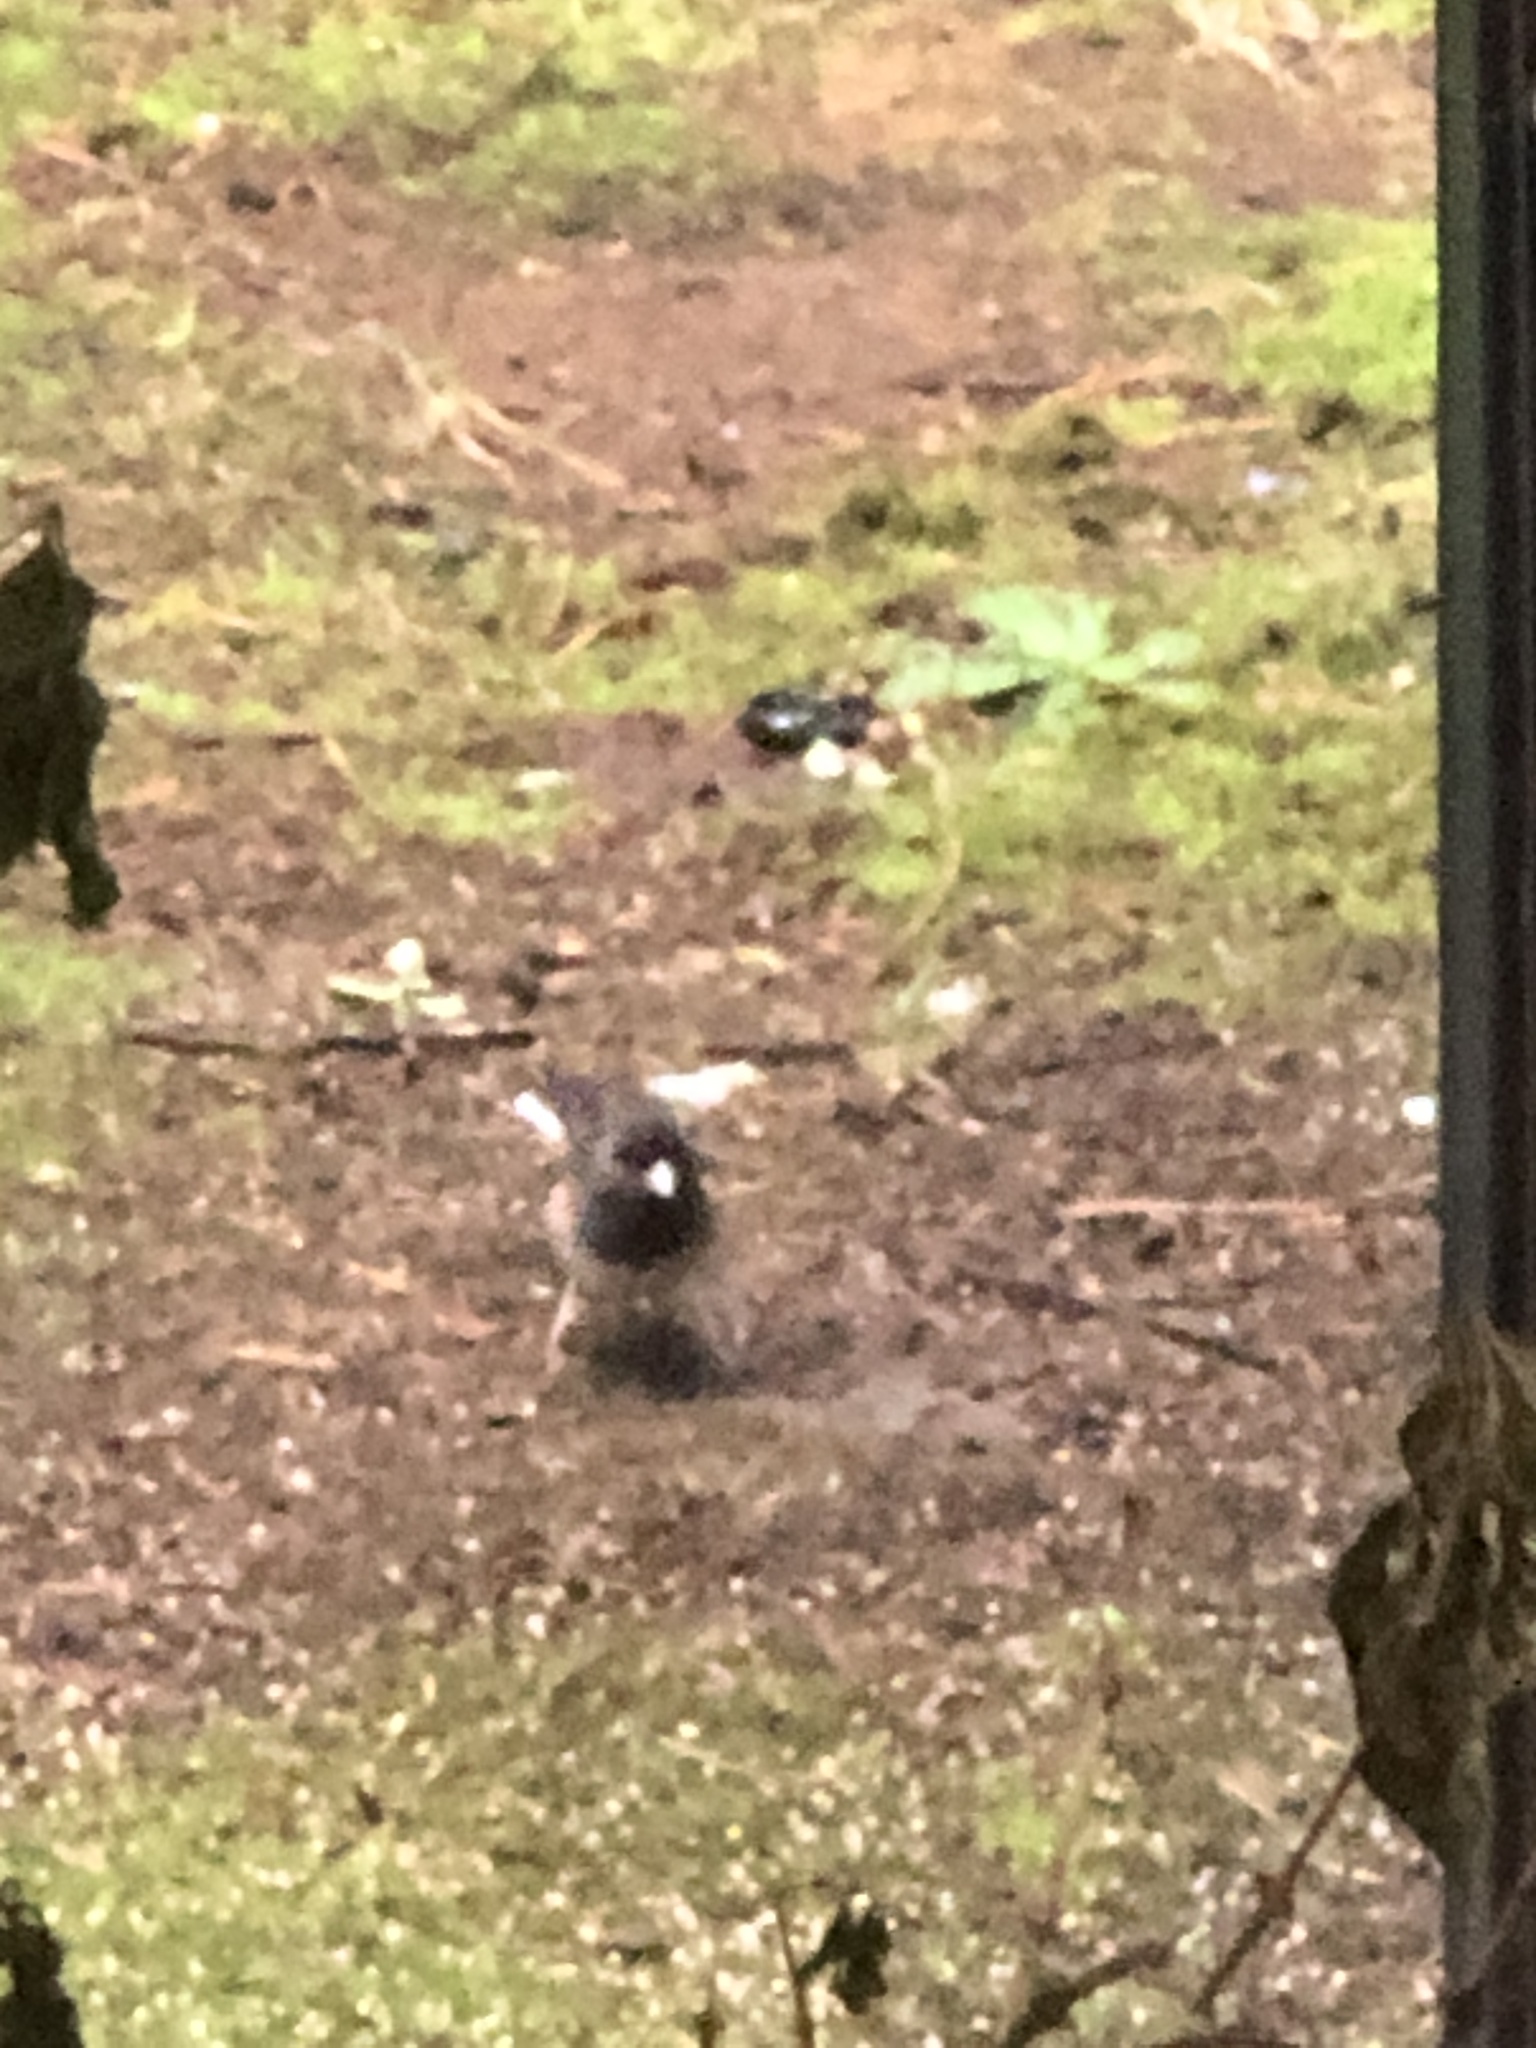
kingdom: Animalia
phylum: Chordata
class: Aves
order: Passeriformes
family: Passerellidae
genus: Junco
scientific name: Junco hyemalis
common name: Dark-eyed junco
